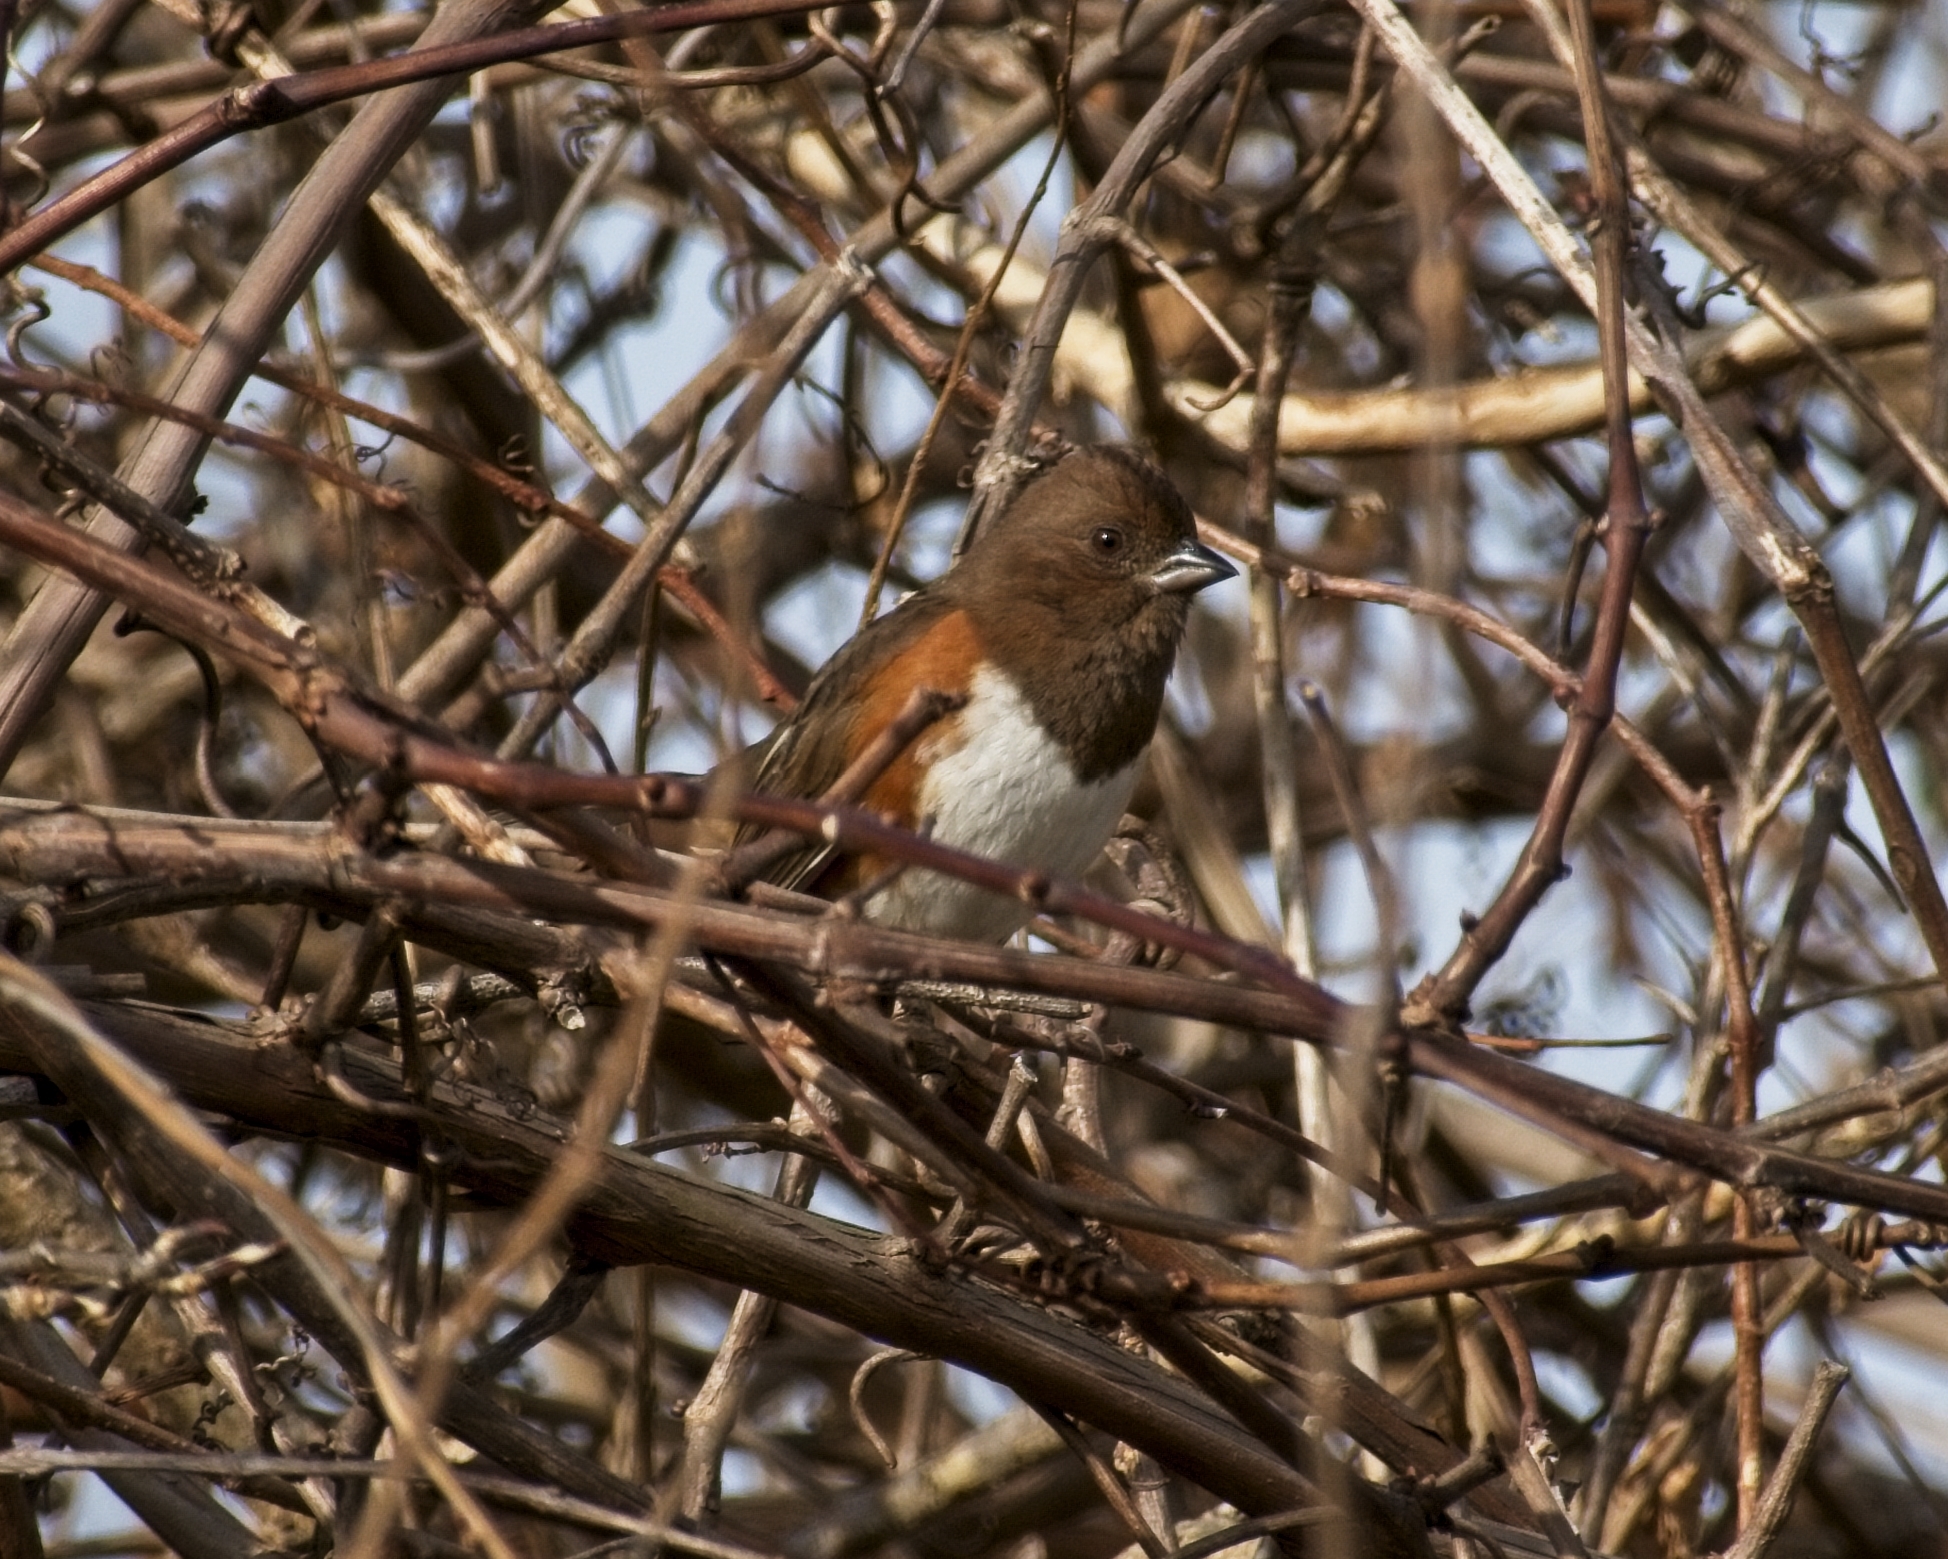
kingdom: Animalia
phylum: Chordata
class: Aves
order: Passeriformes
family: Passerellidae
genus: Pipilo
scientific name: Pipilo erythrophthalmus
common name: Eastern towhee
